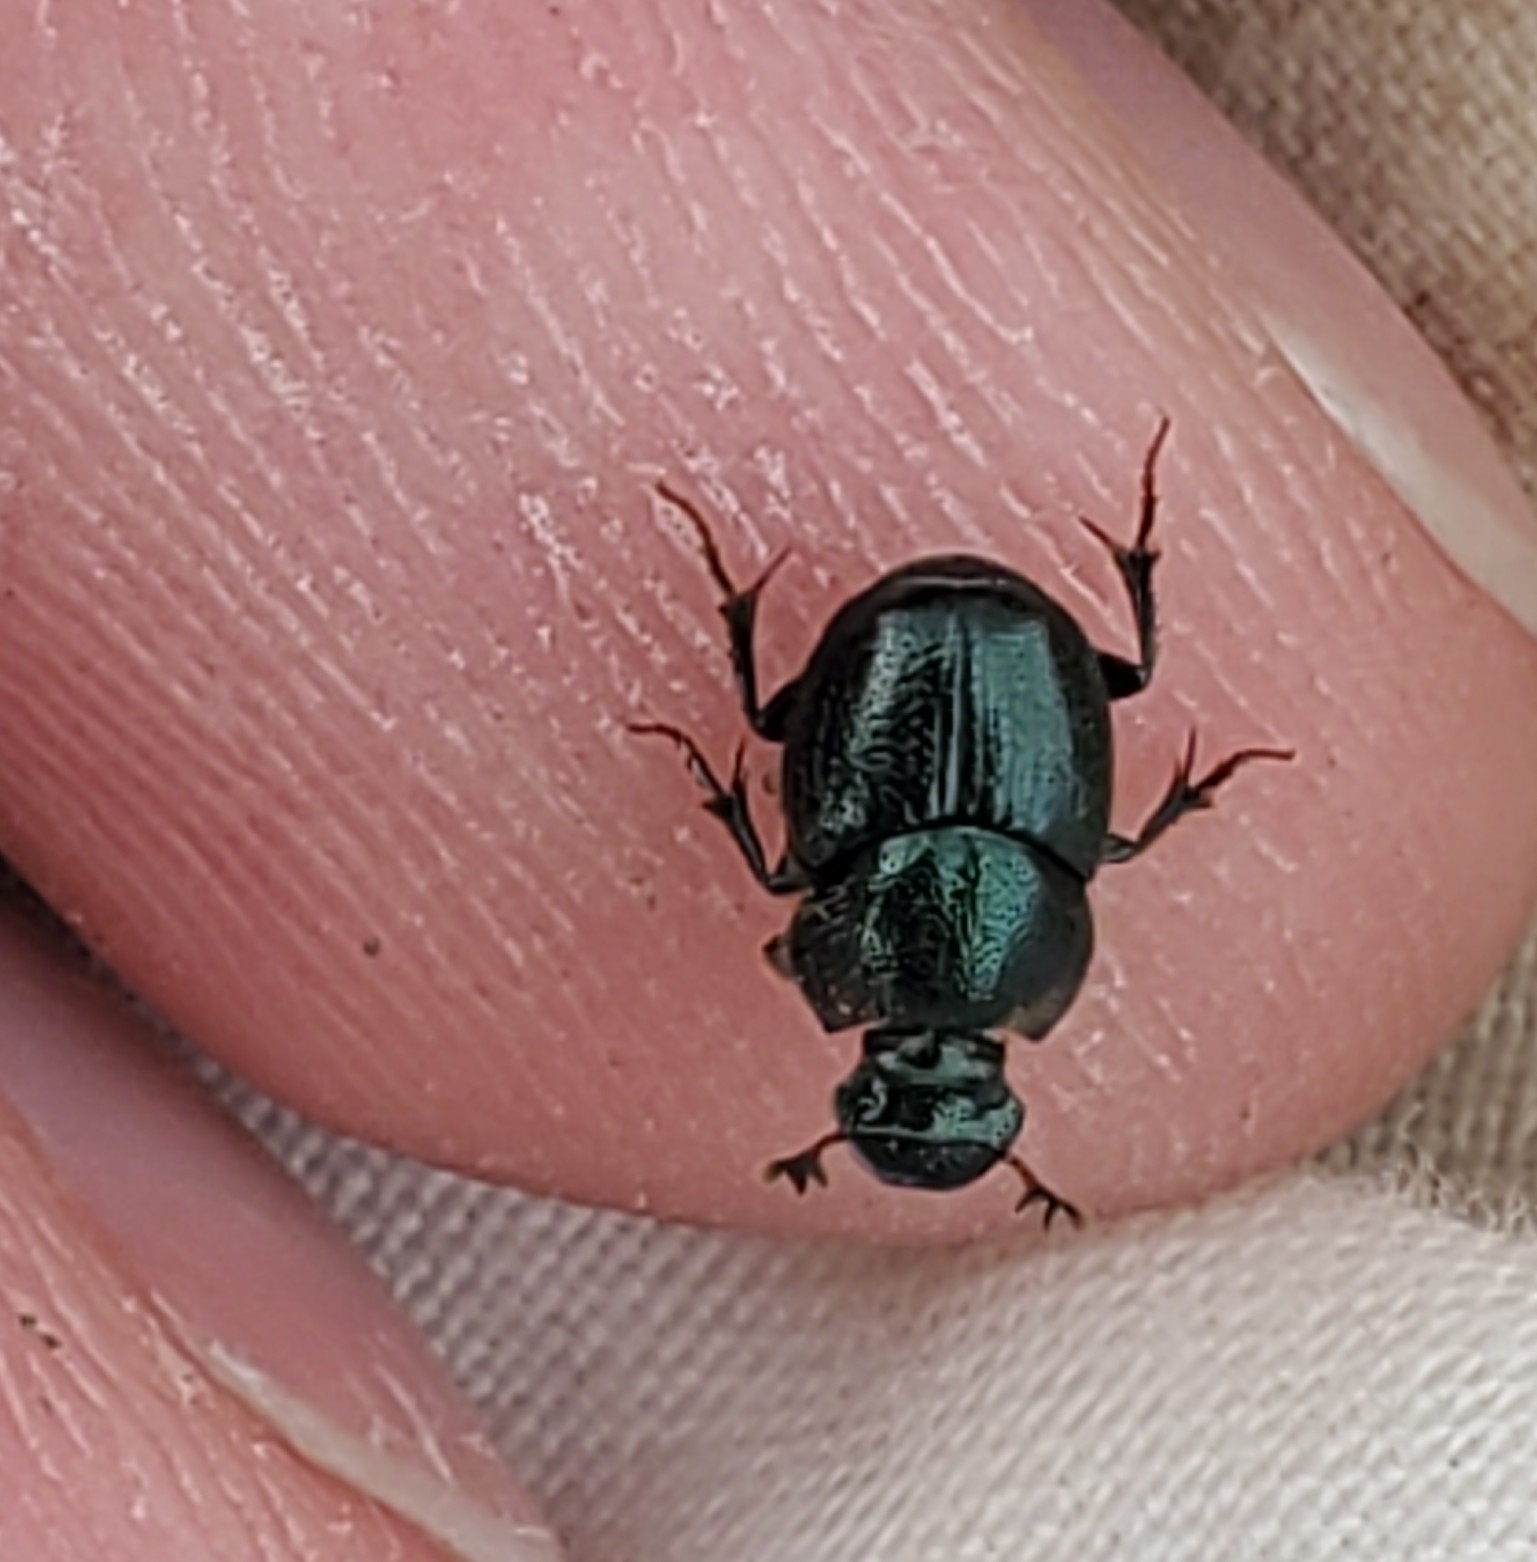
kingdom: Animalia
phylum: Arthropoda
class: Insecta
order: Coleoptera
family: Scarabaeidae
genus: Onthophagus
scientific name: Onthophagus orpheus
